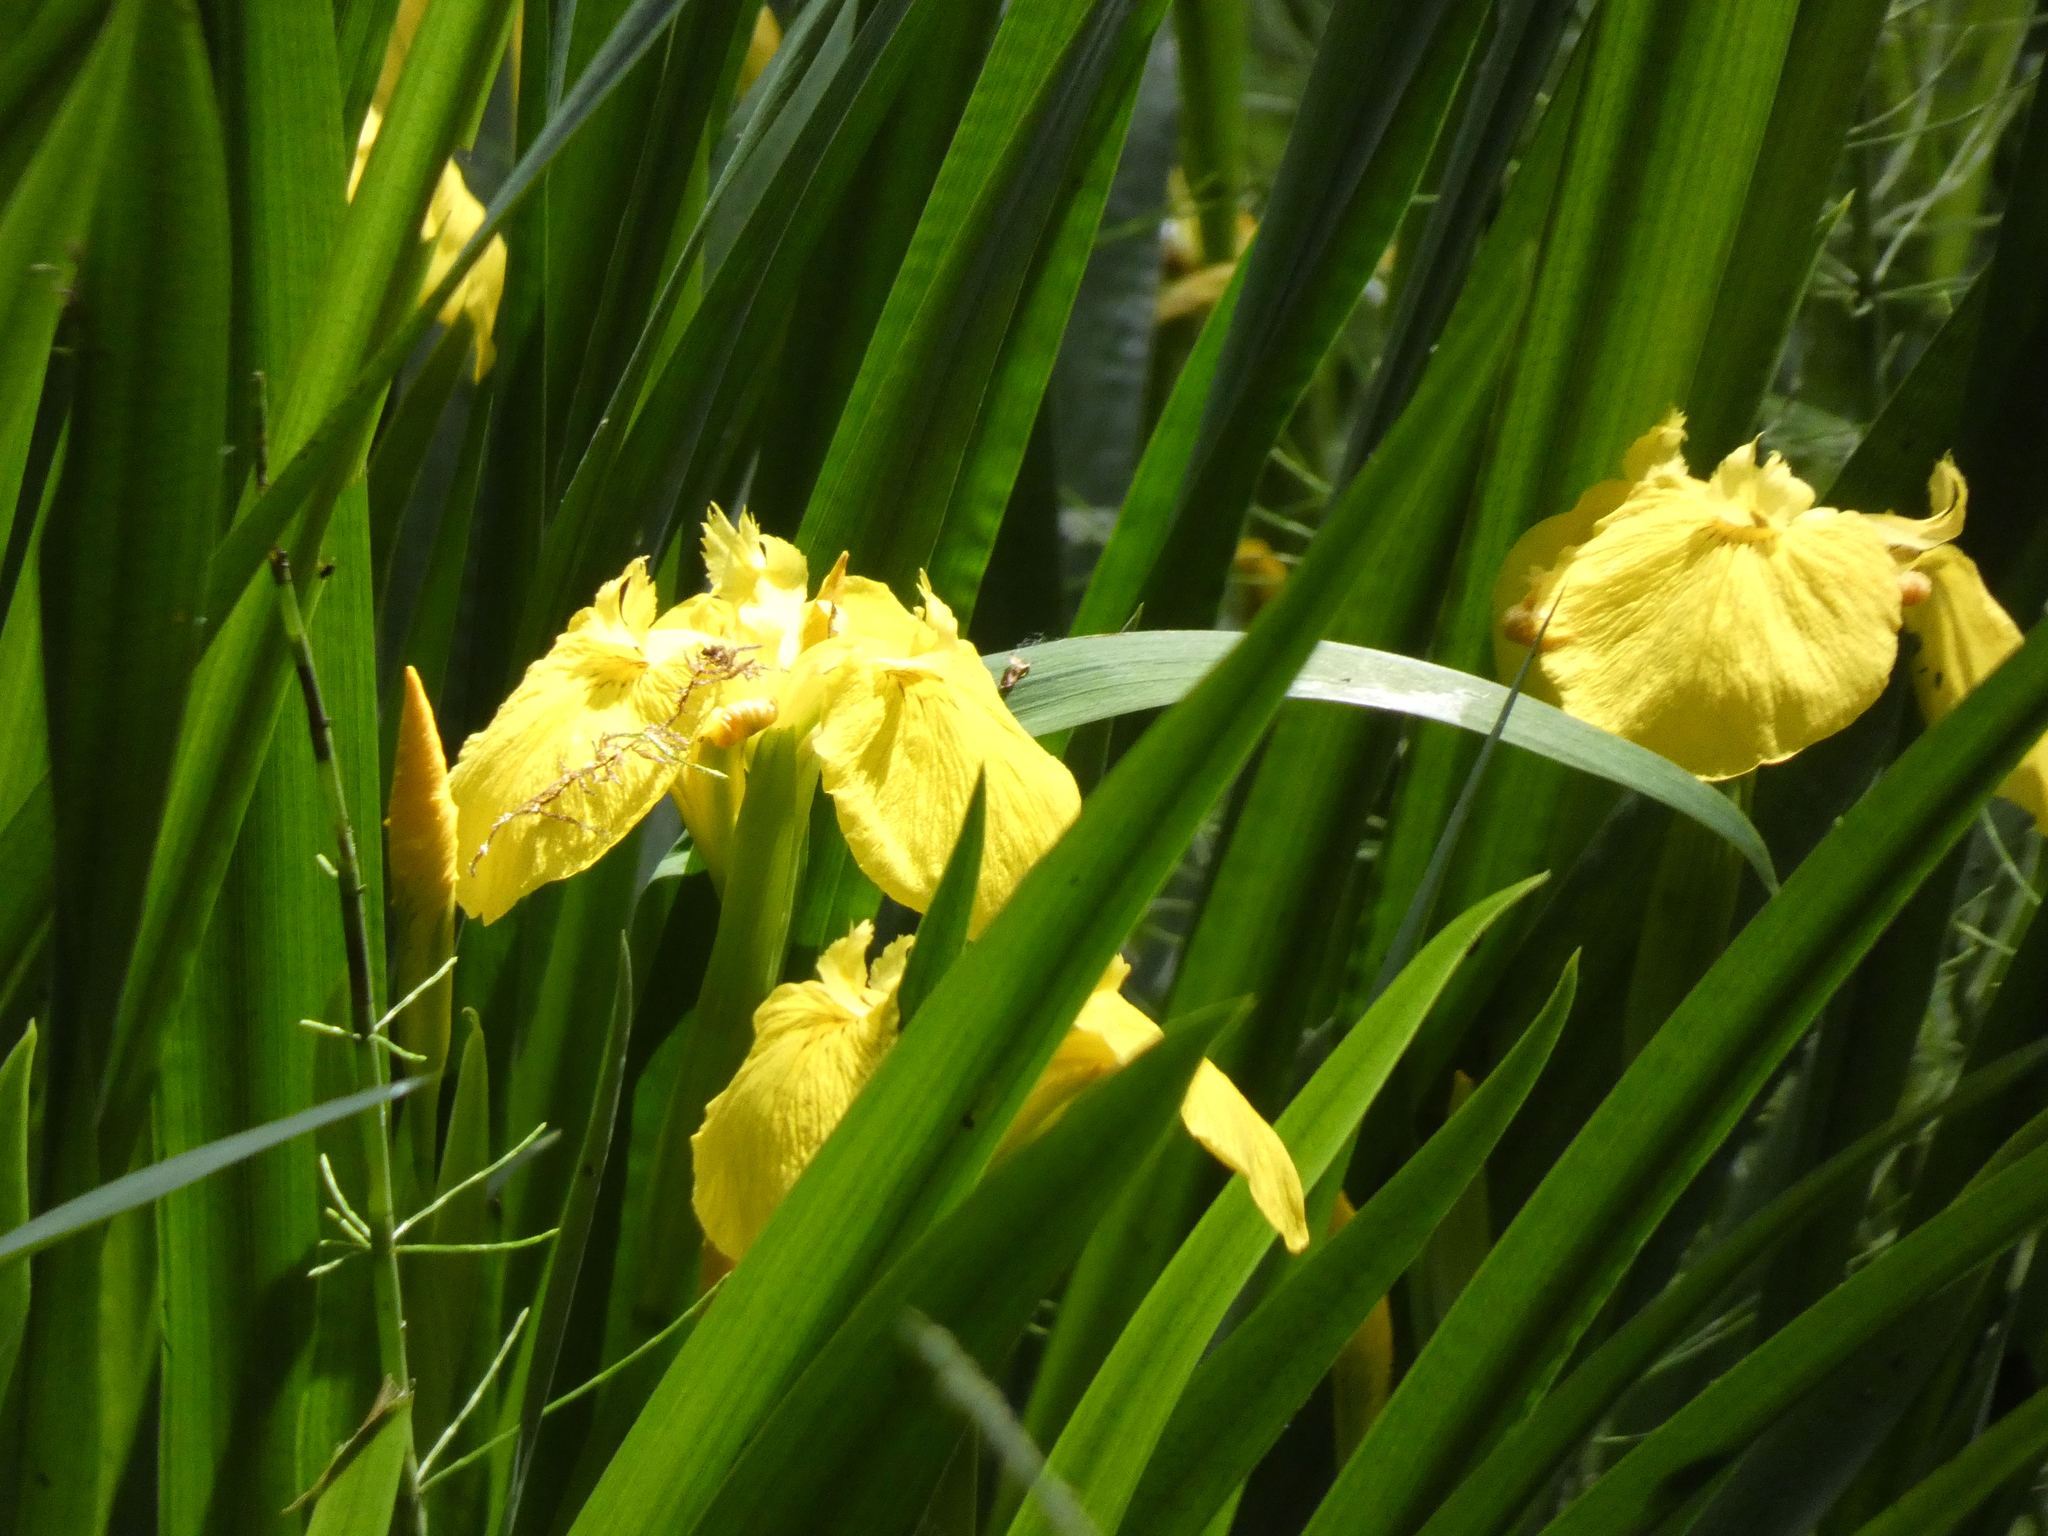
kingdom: Plantae
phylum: Tracheophyta
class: Liliopsida
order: Asparagales
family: Iridaceae
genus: Iris
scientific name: Iris pseudacorus
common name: Yellow flag
